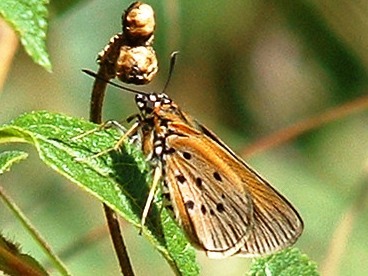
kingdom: Animalia
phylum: Arthropoda
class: Insecta
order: Lepidoptera
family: Hesperiidae
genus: Fresna
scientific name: Fresna nyassae
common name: Variegated acraea hopper
